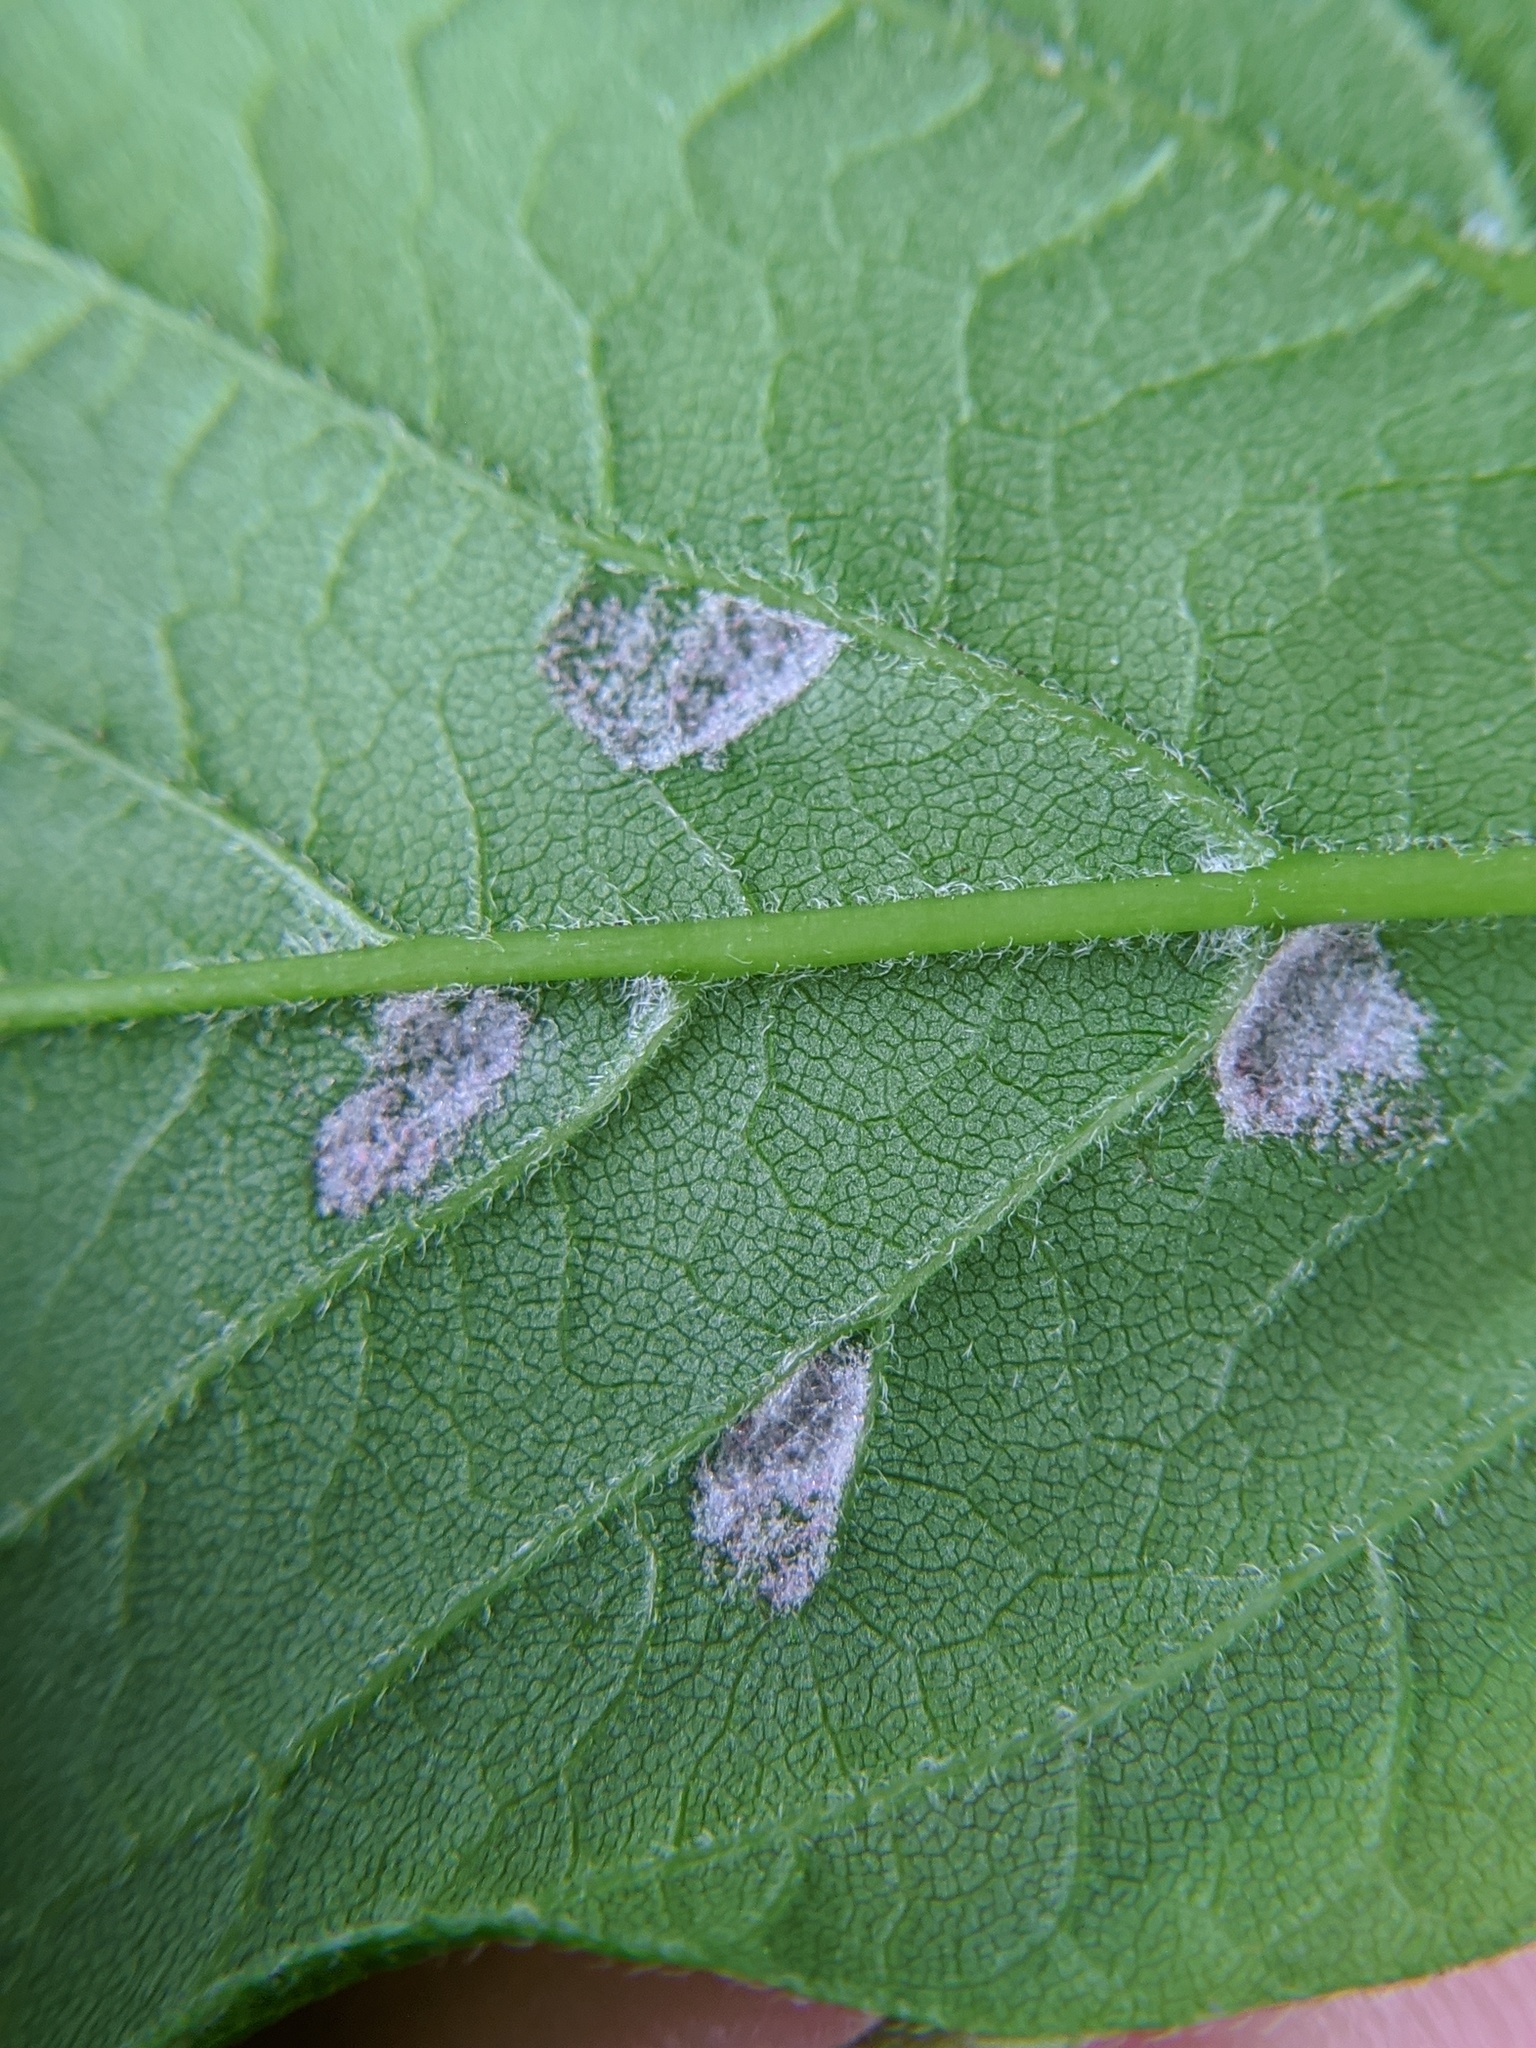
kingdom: Animalia
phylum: Arthropoda
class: Arachnida
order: Trombidiformes
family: Eriophyidae
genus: Aceria
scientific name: Aceria
